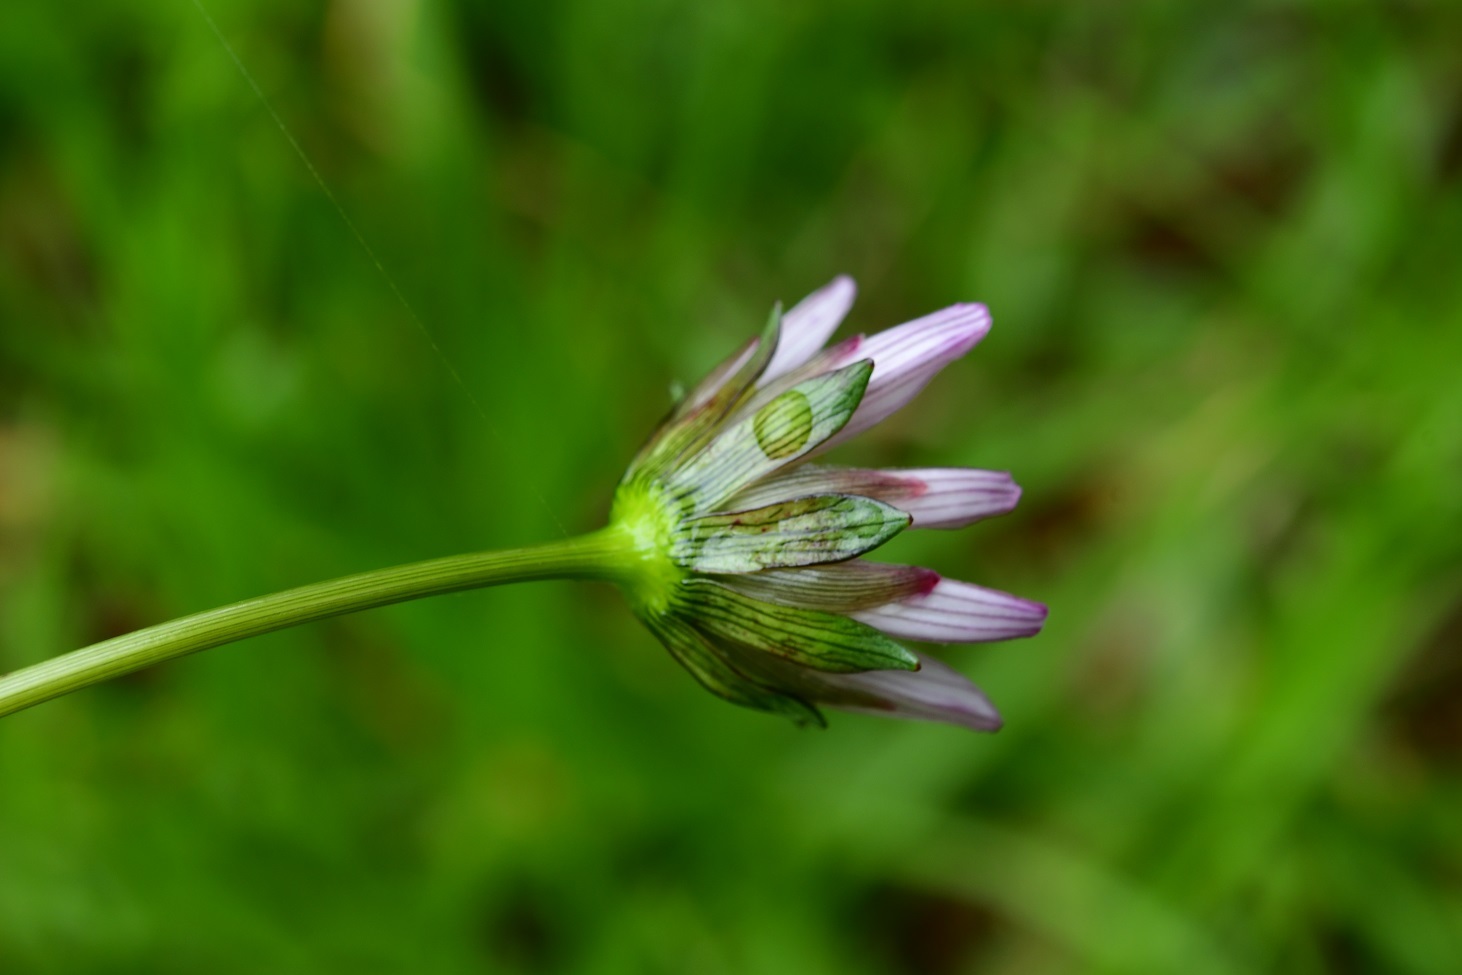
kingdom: Plantae
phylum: Tracheophyta
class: Magnoliopsida
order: Asterales
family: Asteraceae
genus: Cosmos
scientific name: Cosmos diversifolius
